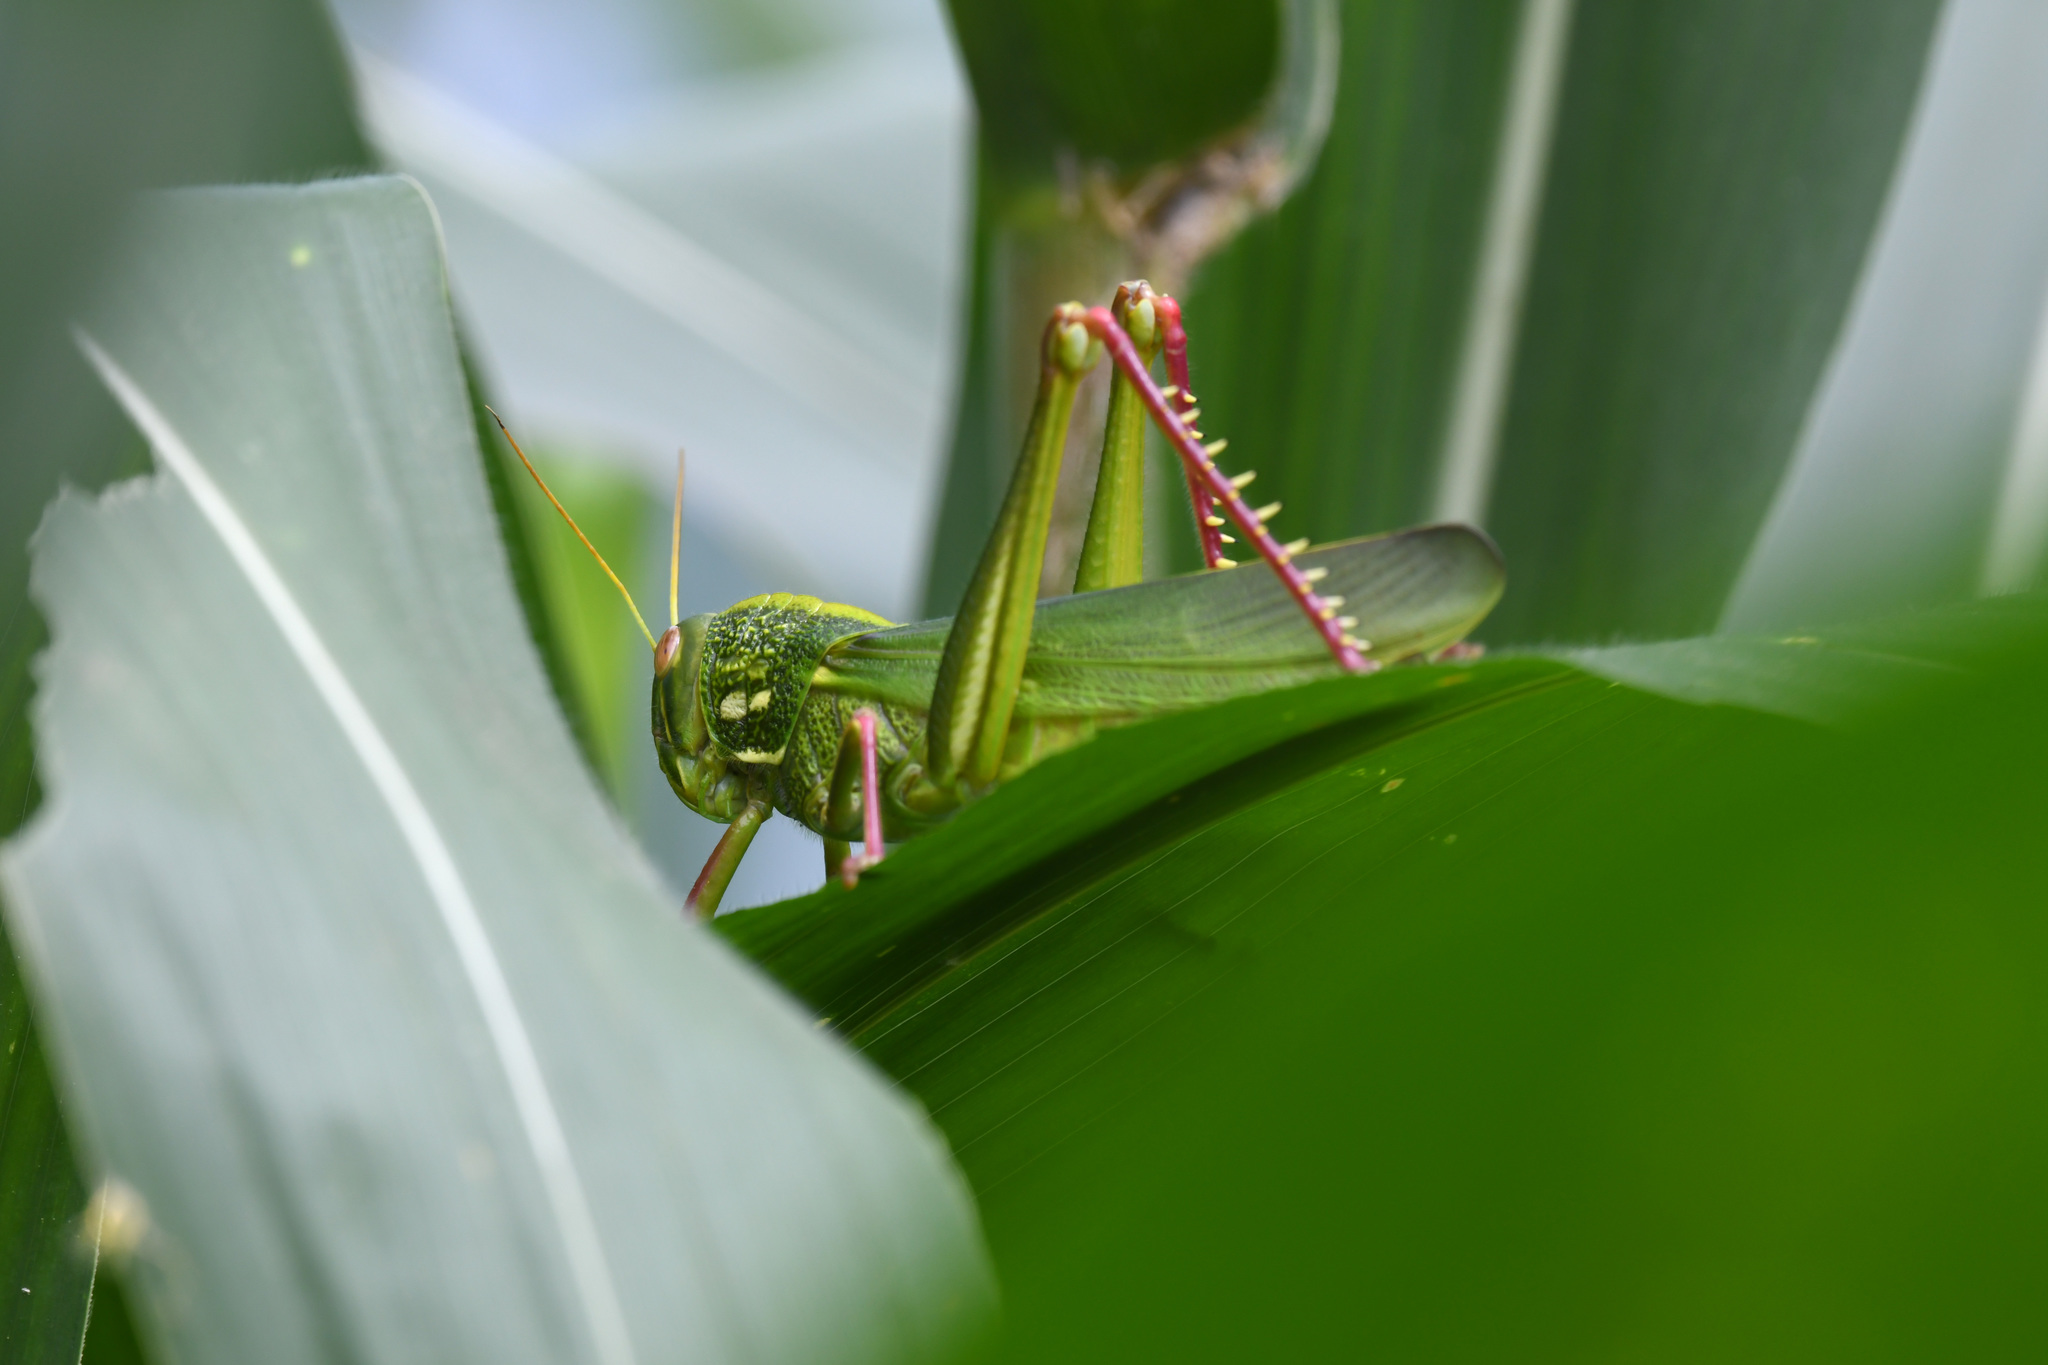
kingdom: Animalia
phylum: Arthropoda
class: Insecta
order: Orthoptera
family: Acrididae
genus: Chondracris
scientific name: Chondracris rosea
